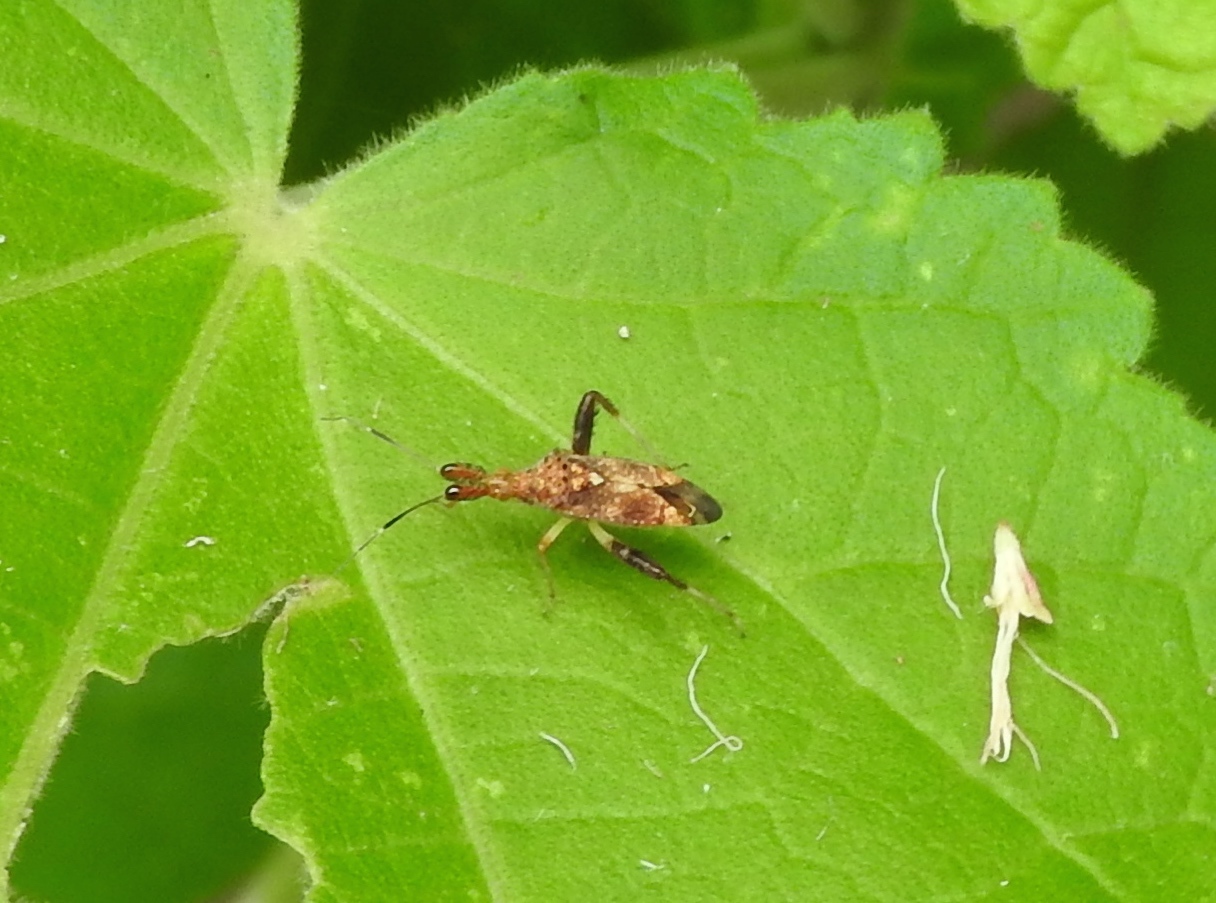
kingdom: Animalia
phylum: Arthropoda
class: Insecta
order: Hemiptera
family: Miridae
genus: Neurocolpus
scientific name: Neurocolpus
